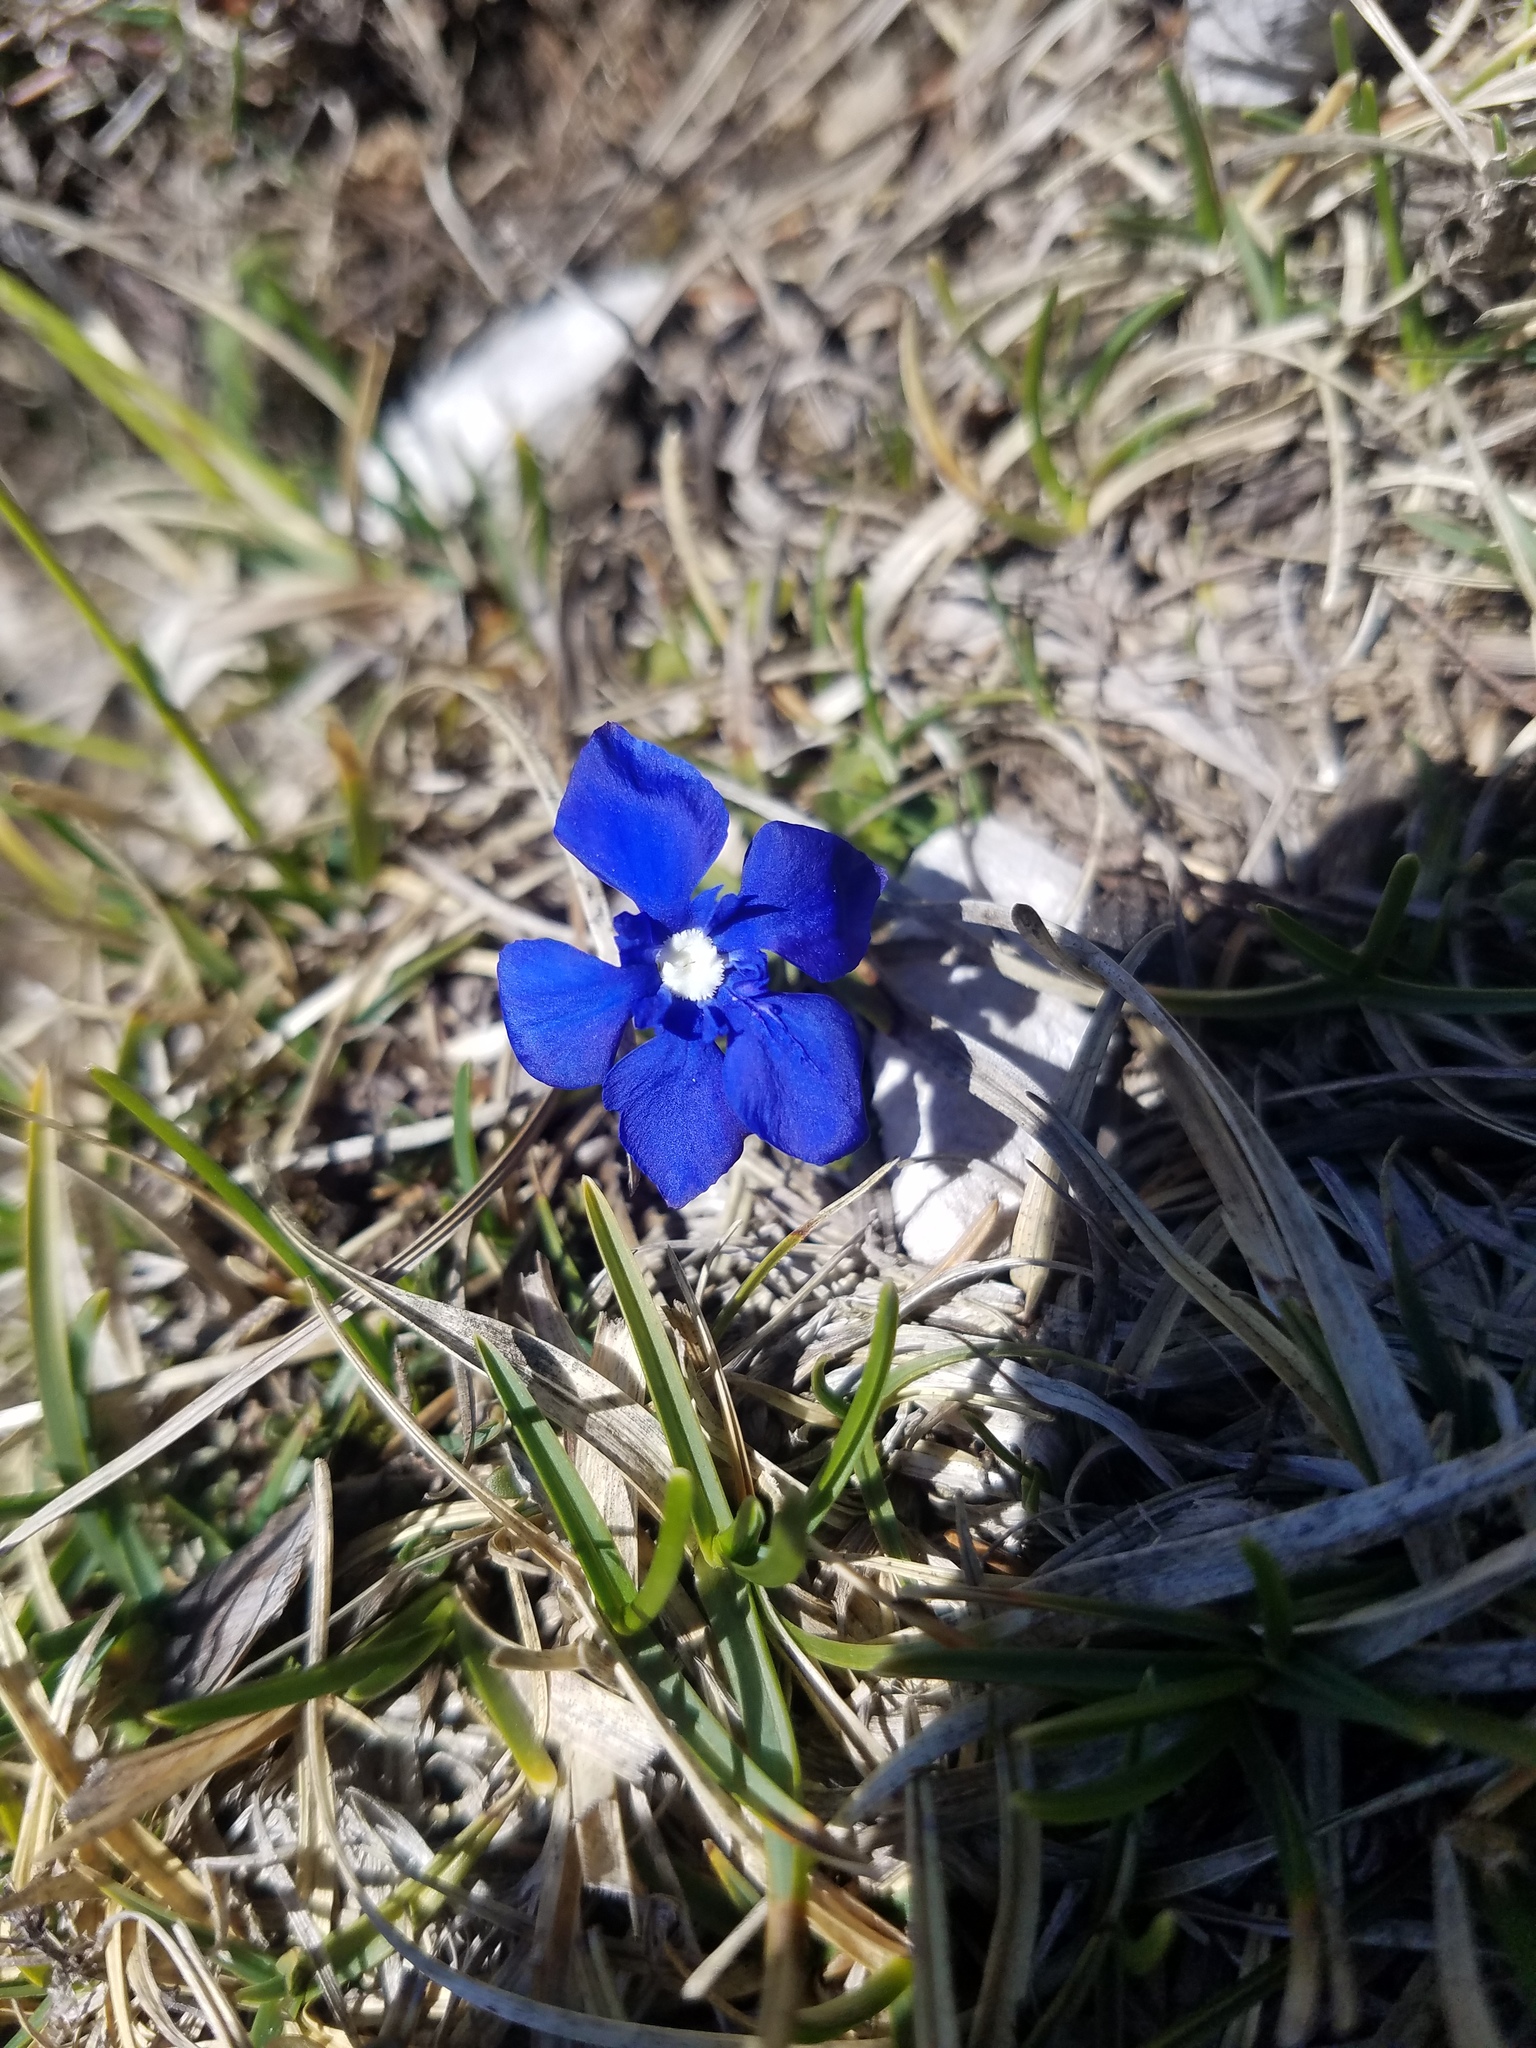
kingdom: Plantae
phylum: Tracheophyta
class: Magnoliopsida
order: Gentianales
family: Gentianaceae
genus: Gentiana
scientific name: Gentiana verna
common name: Spring gentian
